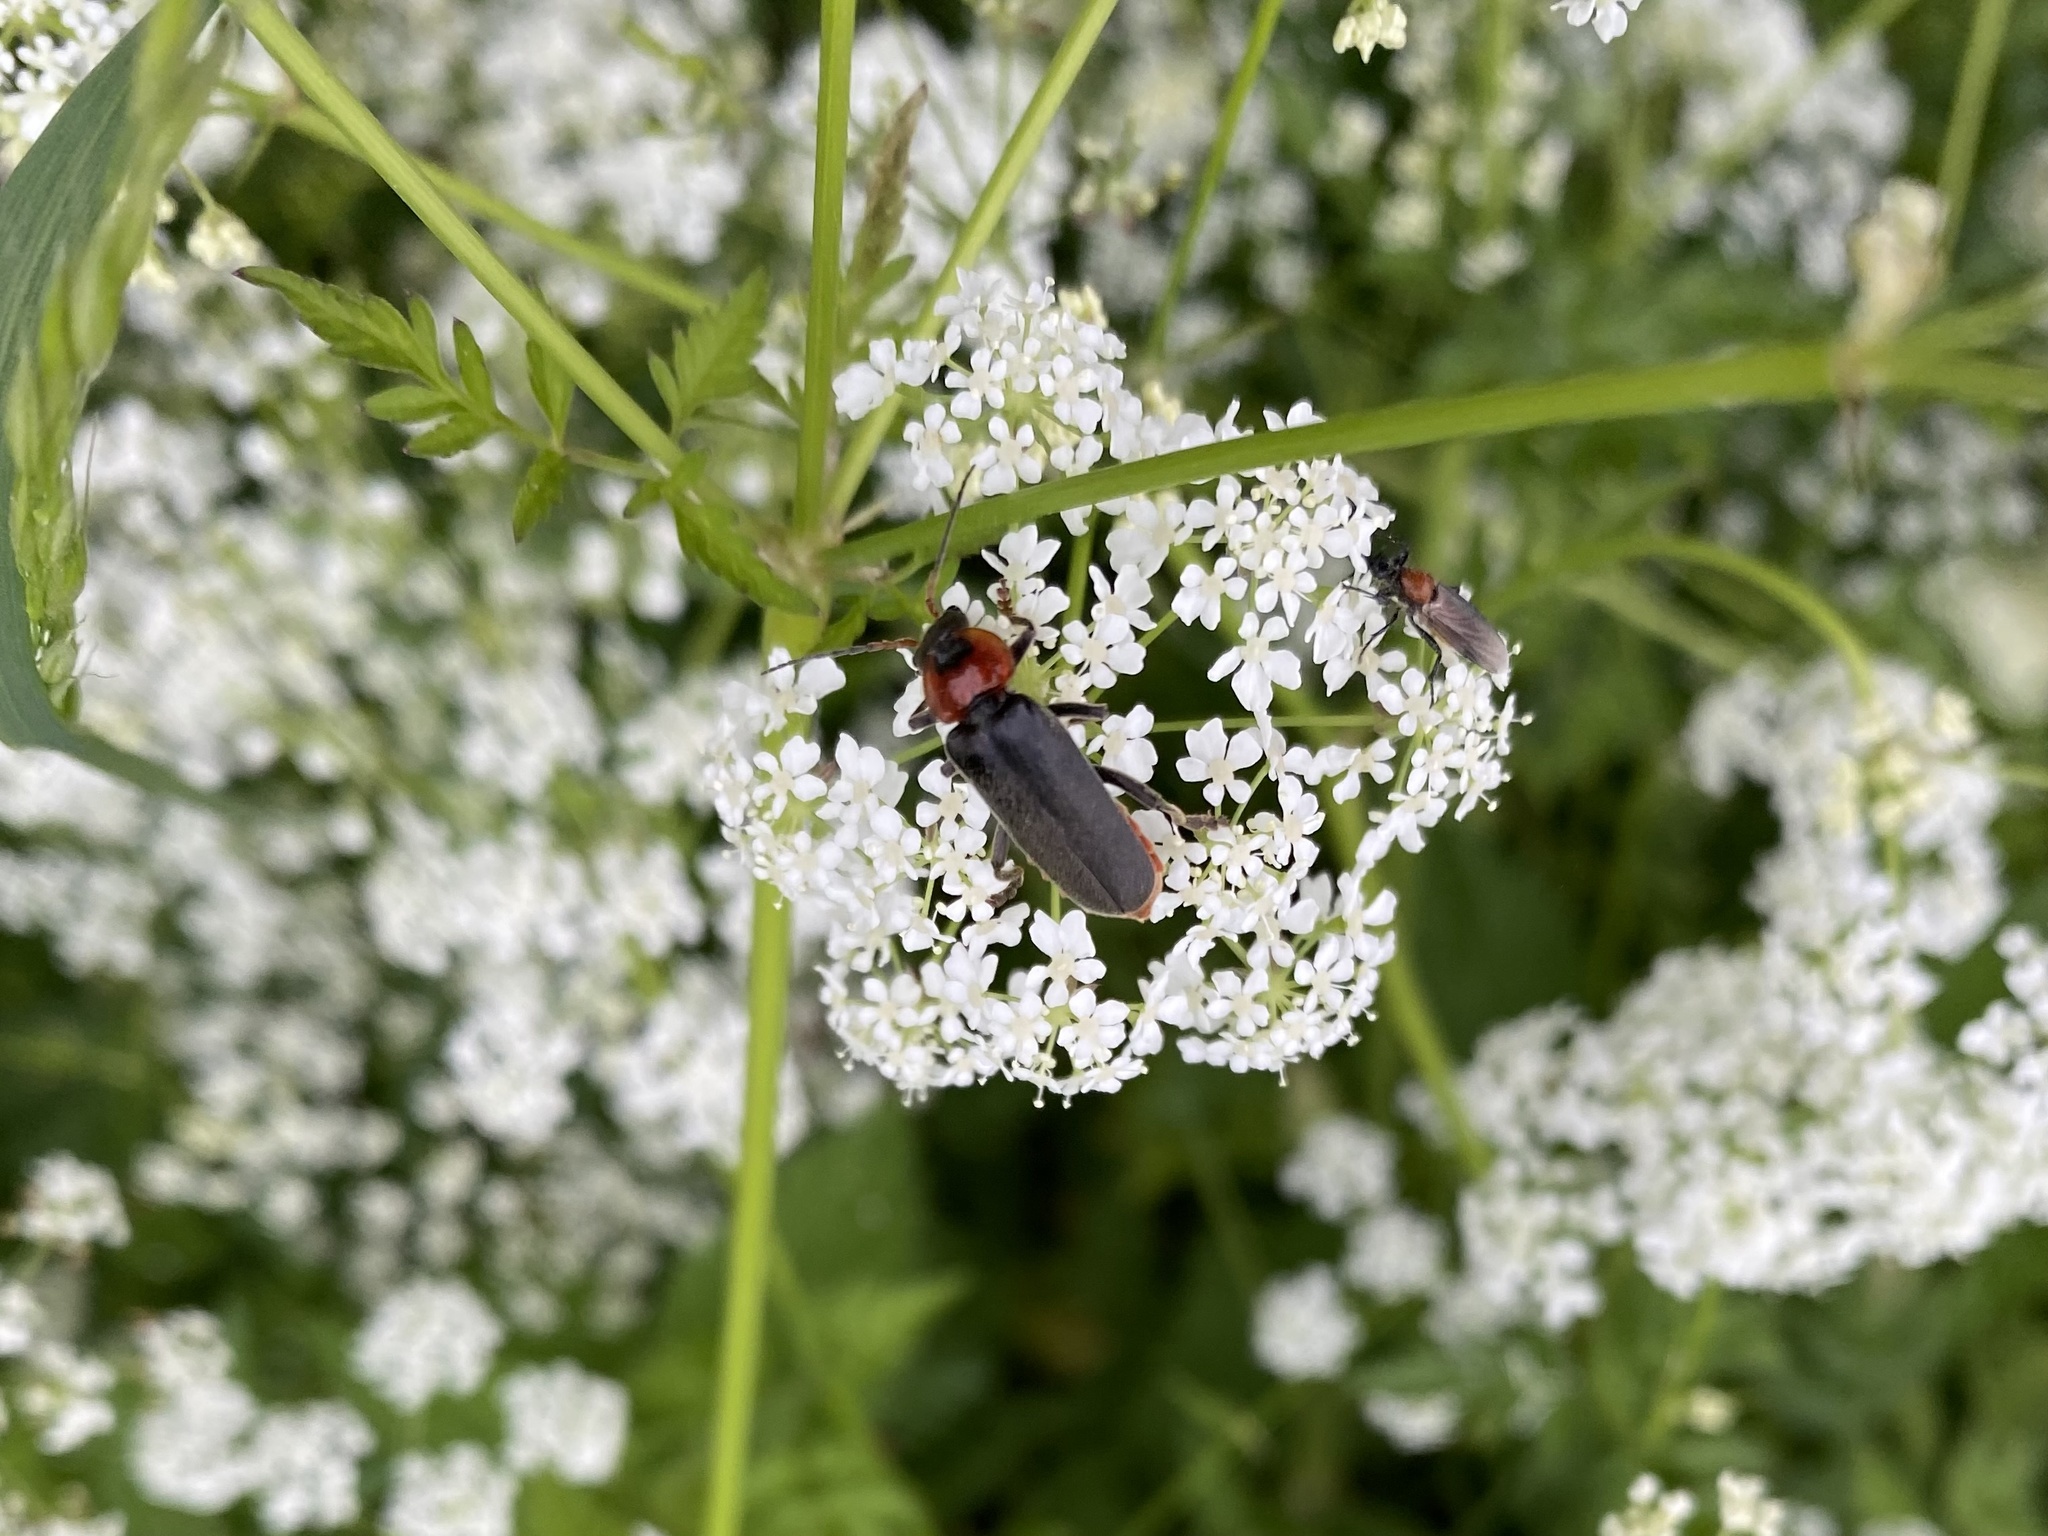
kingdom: Animalia
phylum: Arthropoda
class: Insecta
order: Coleoptera
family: Cantharidae
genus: Cantharis
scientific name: Cantharis fusca
